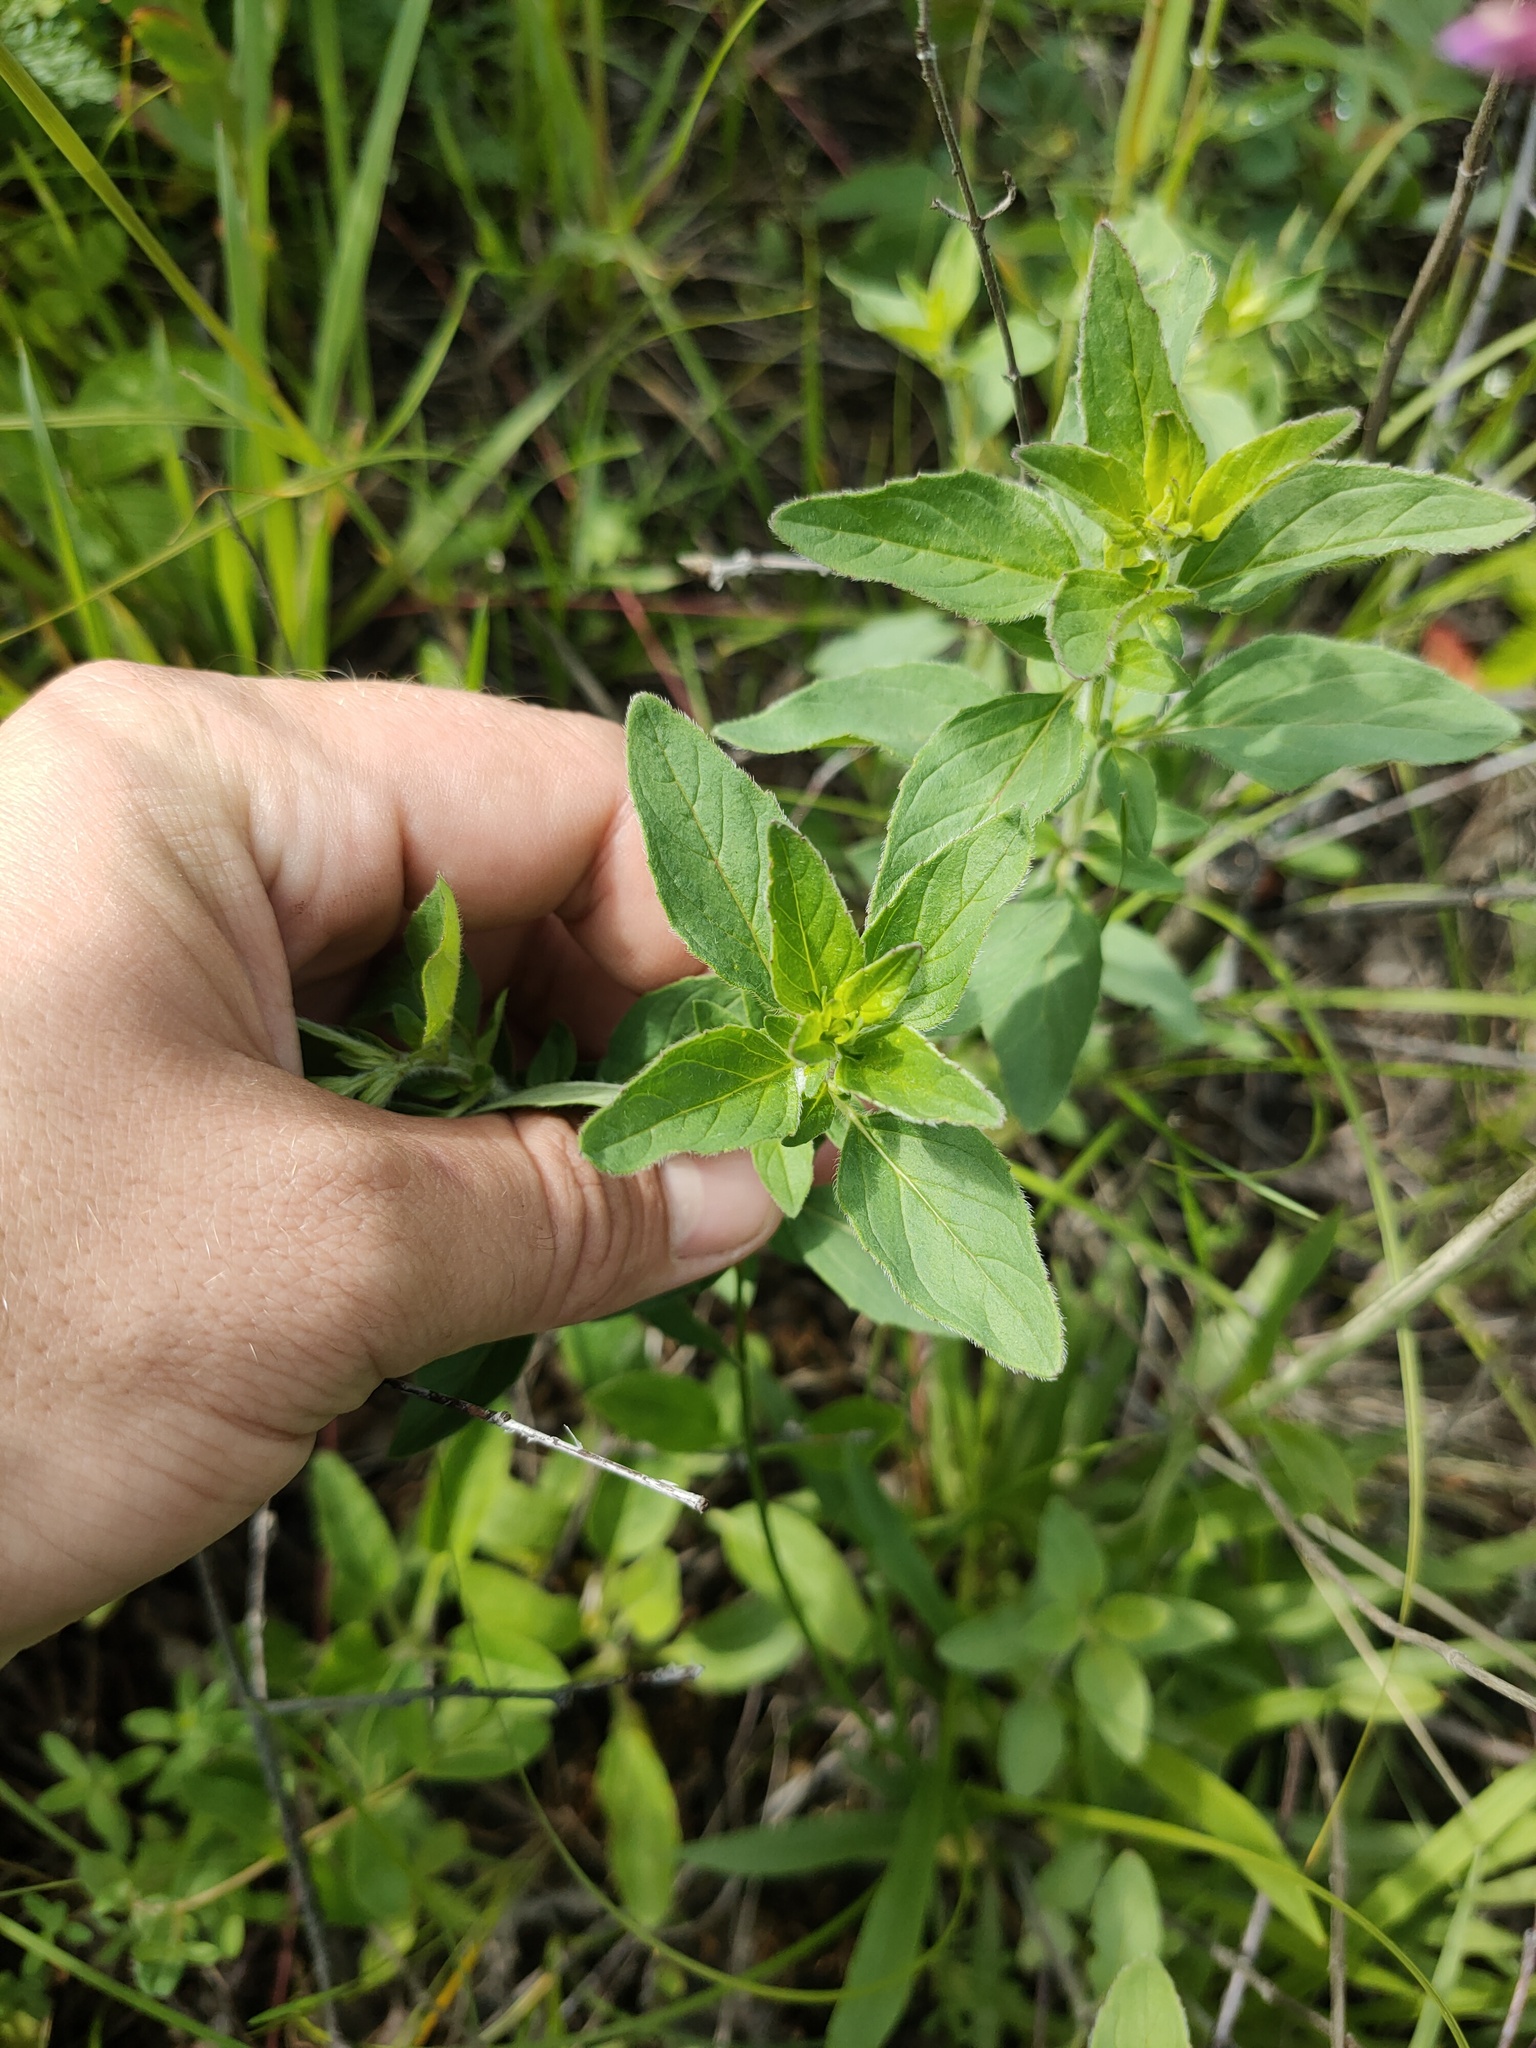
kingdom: Plantae
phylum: Tracheophyta
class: Magnoliopsida
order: Lamiales
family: Lamiaceae
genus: Origanum
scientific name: Origanum vulgare
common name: Wild marjoram
